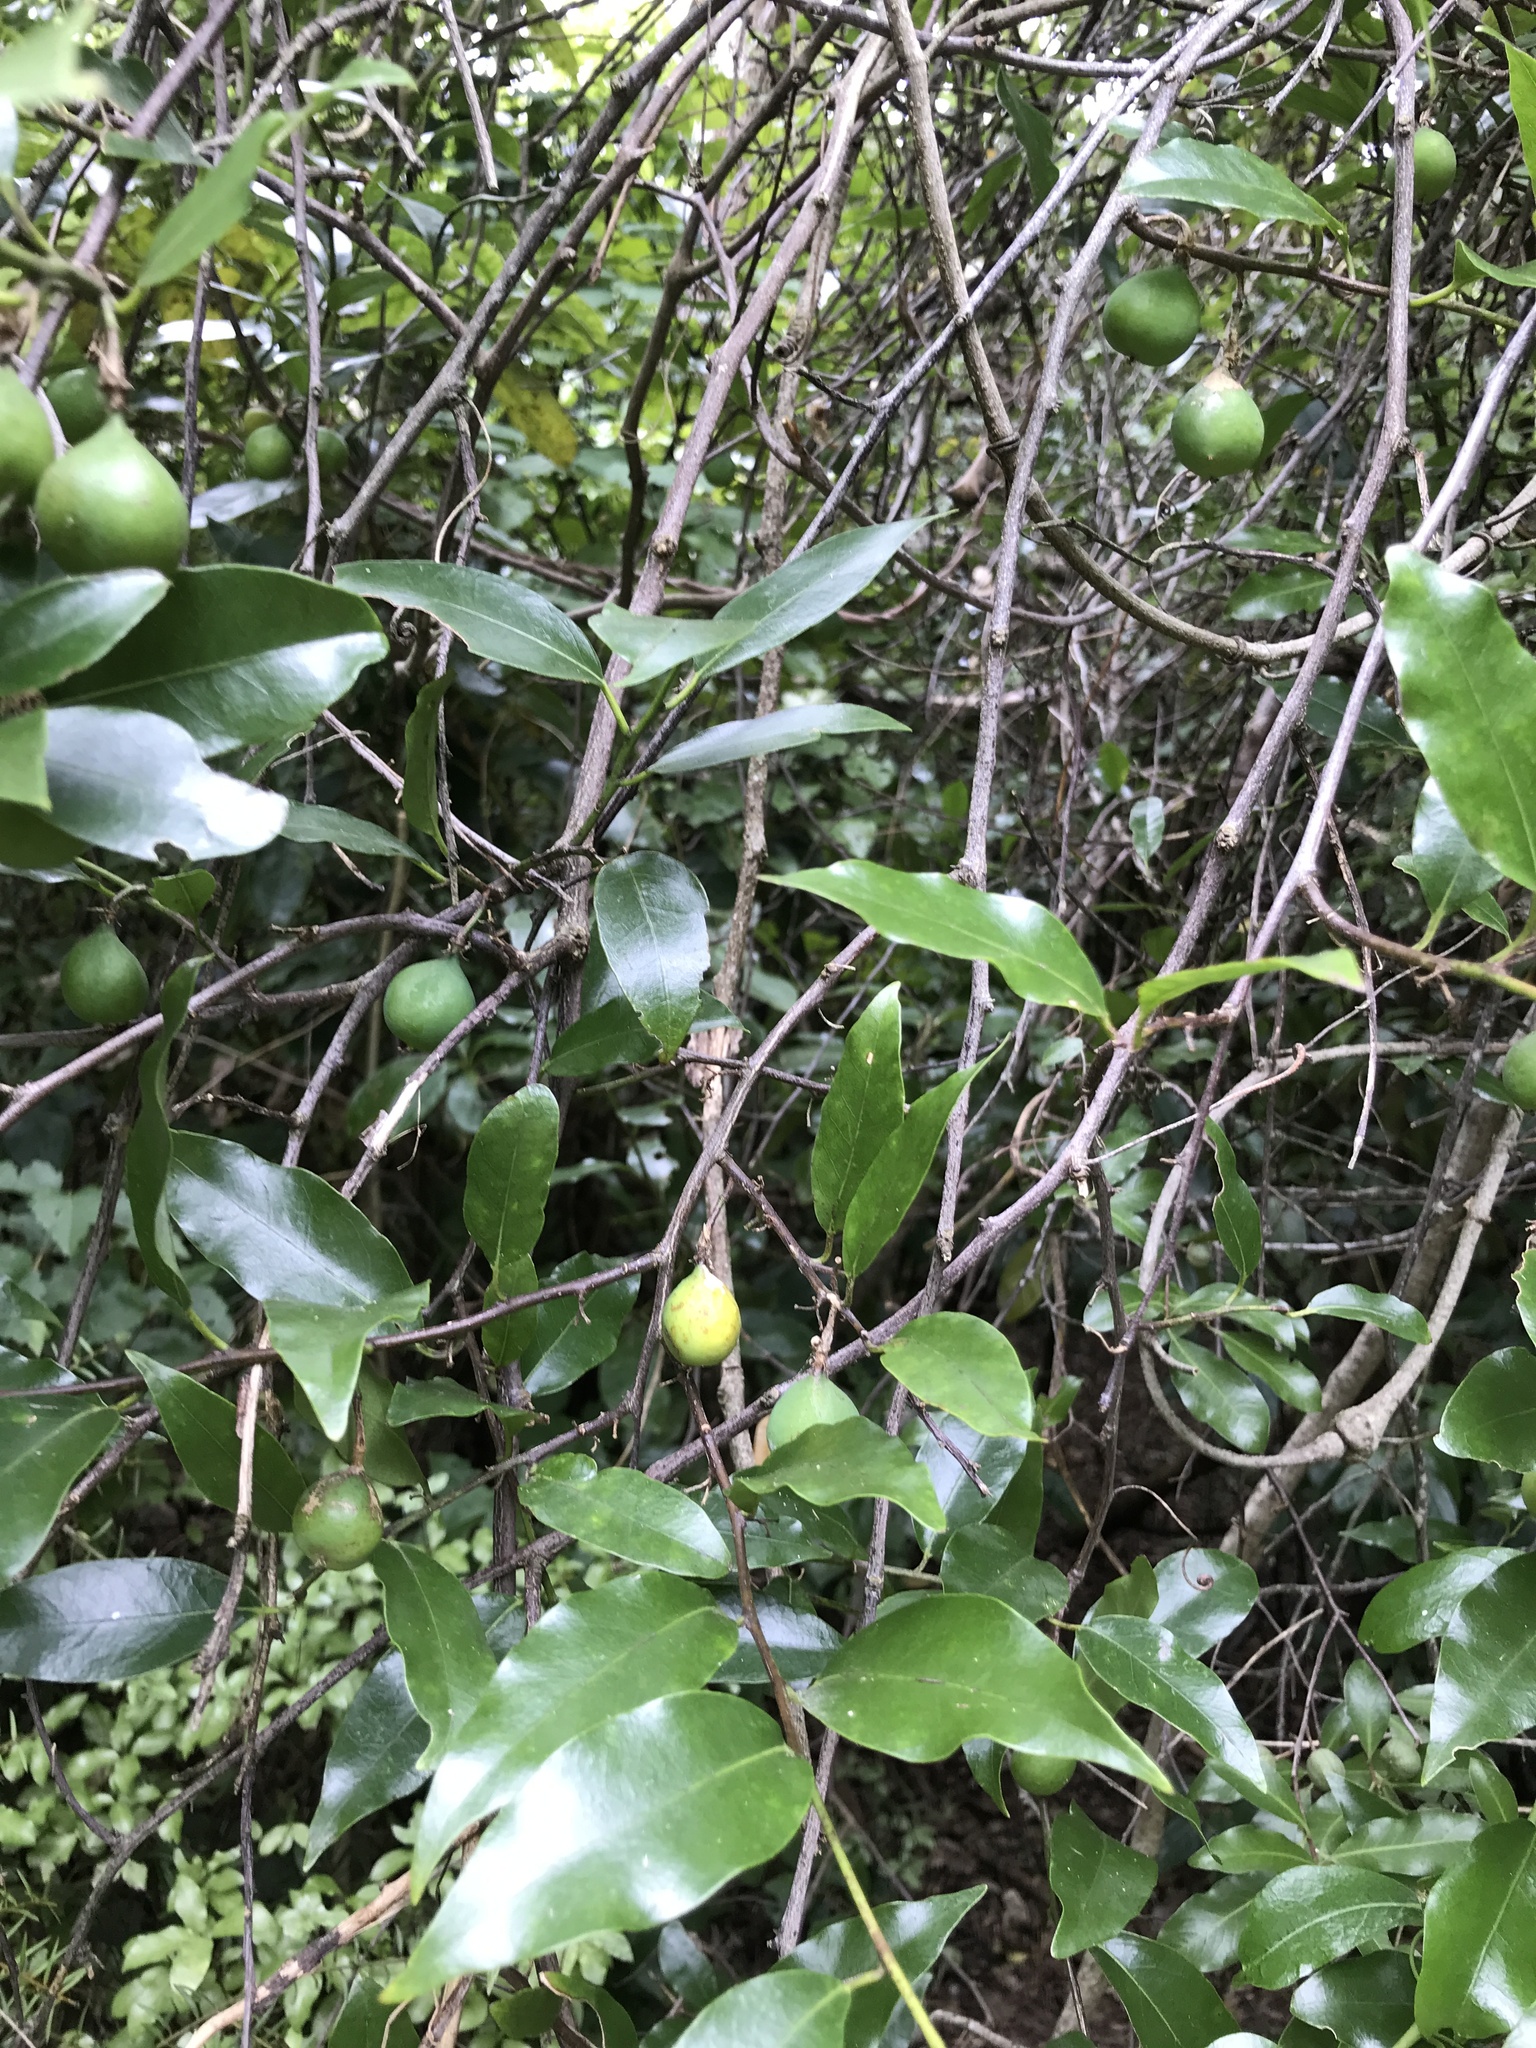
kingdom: Plantae
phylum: Tracheophyta
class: Magnoliopsida
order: Malpighiales
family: Passifloraceae
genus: Passiflora
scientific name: Passiflora tetrandra
